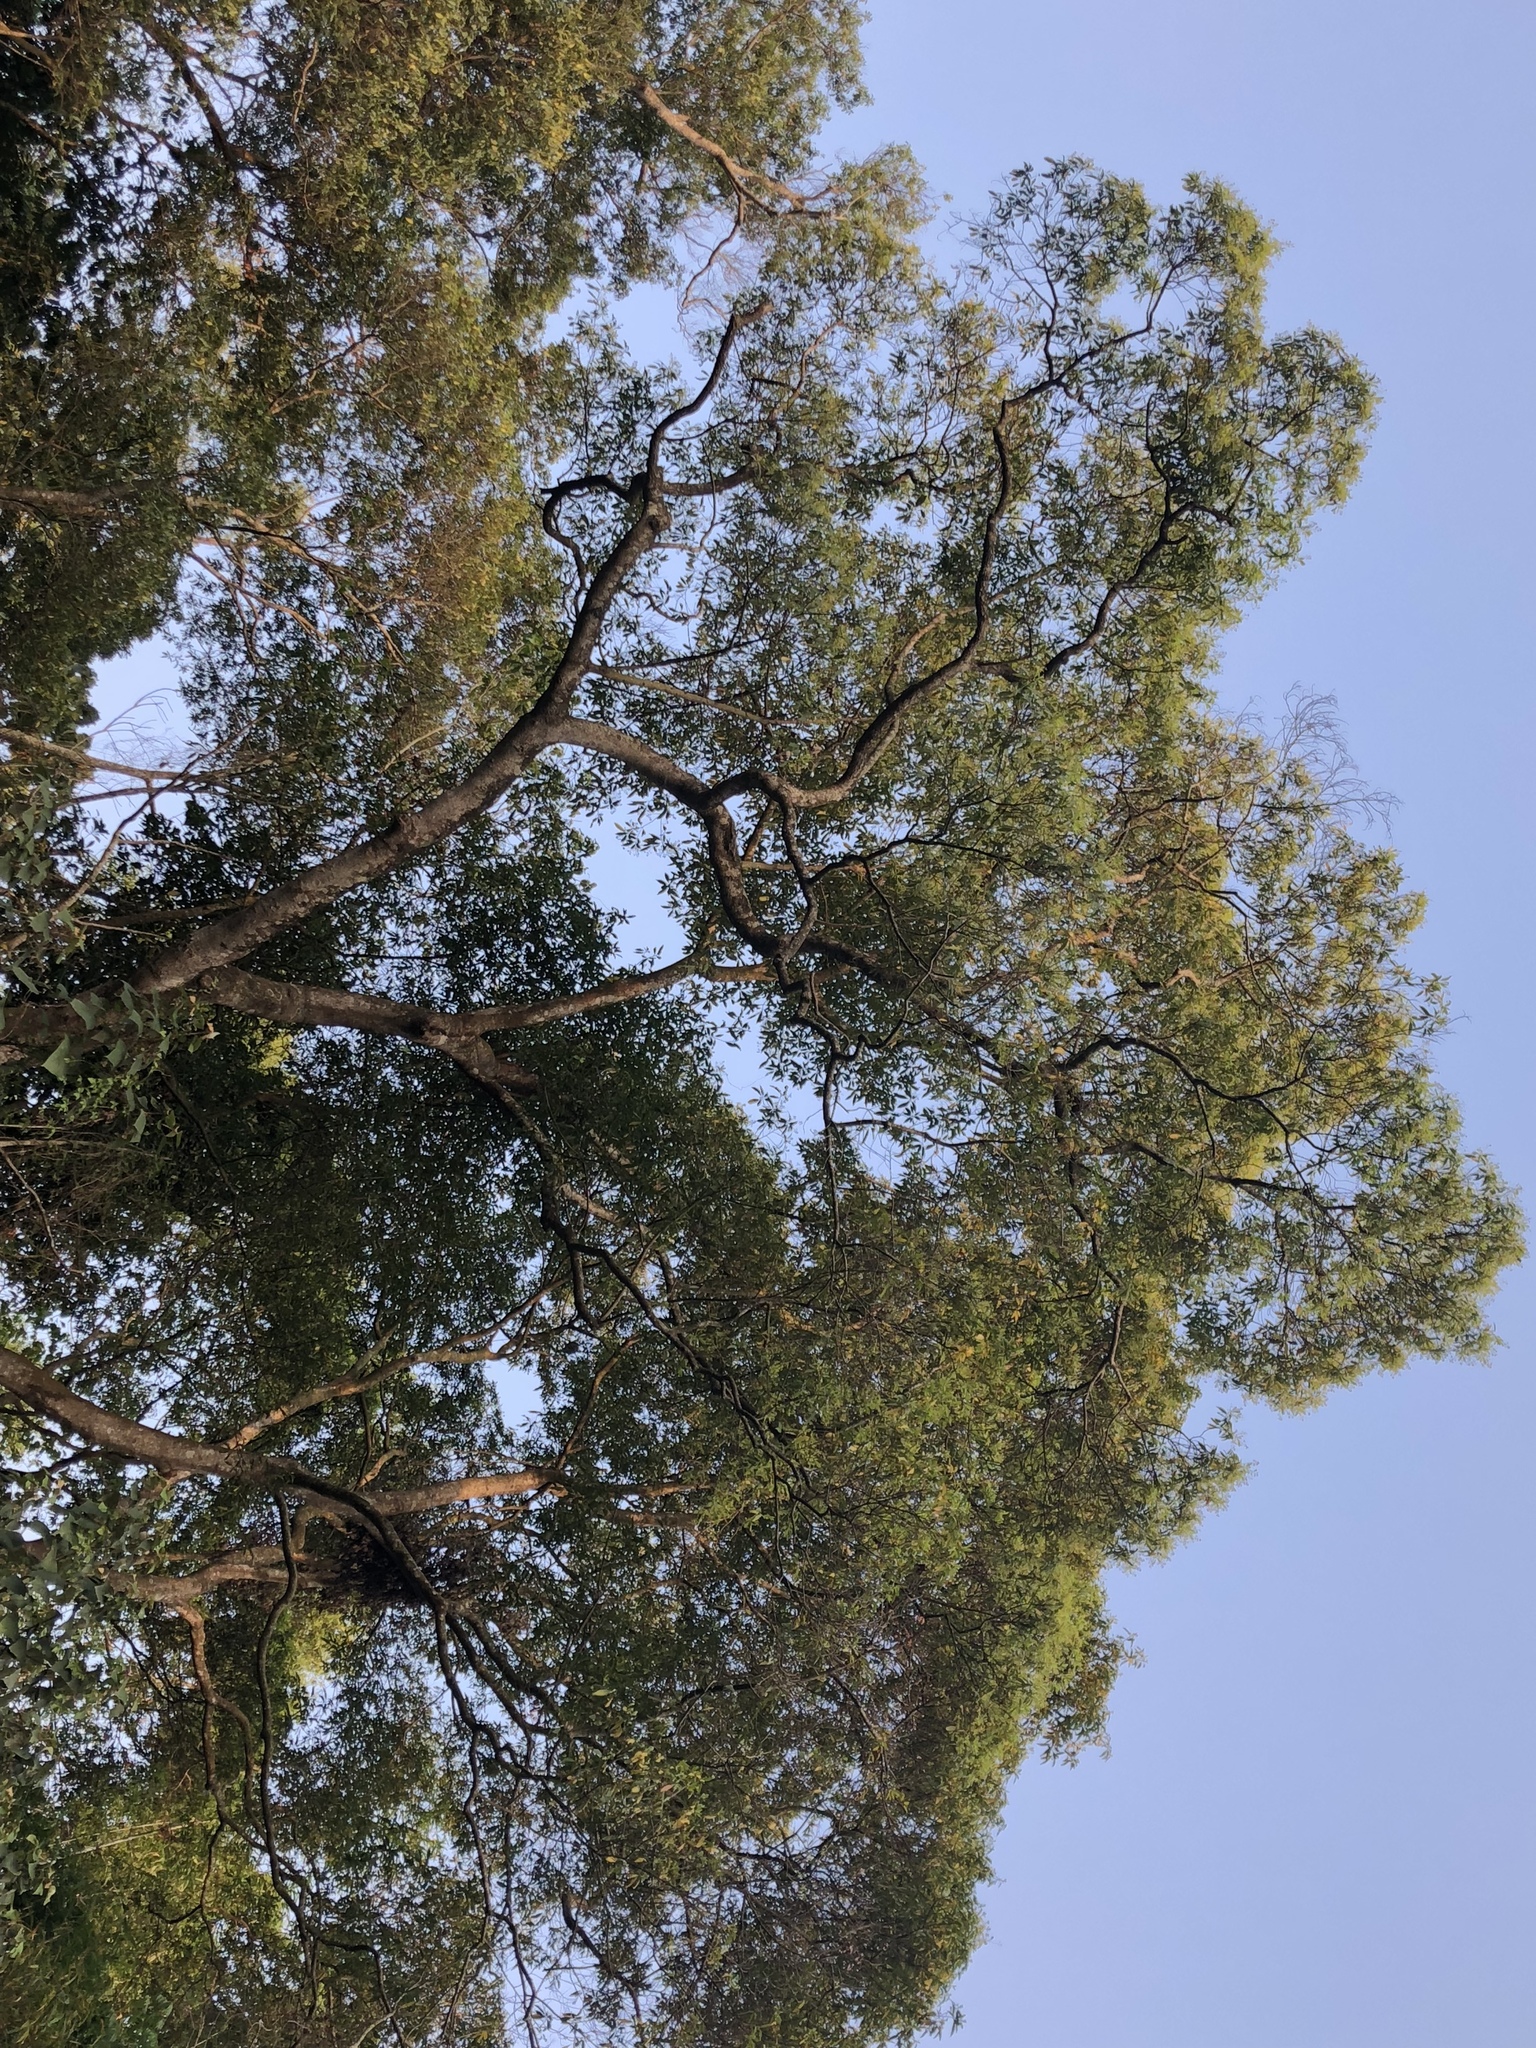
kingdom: Plantae
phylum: Tracheophyta
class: Magnoliopsida
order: Laurales
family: Lauraceae
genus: Machilus
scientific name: Machilus zuihoensis
